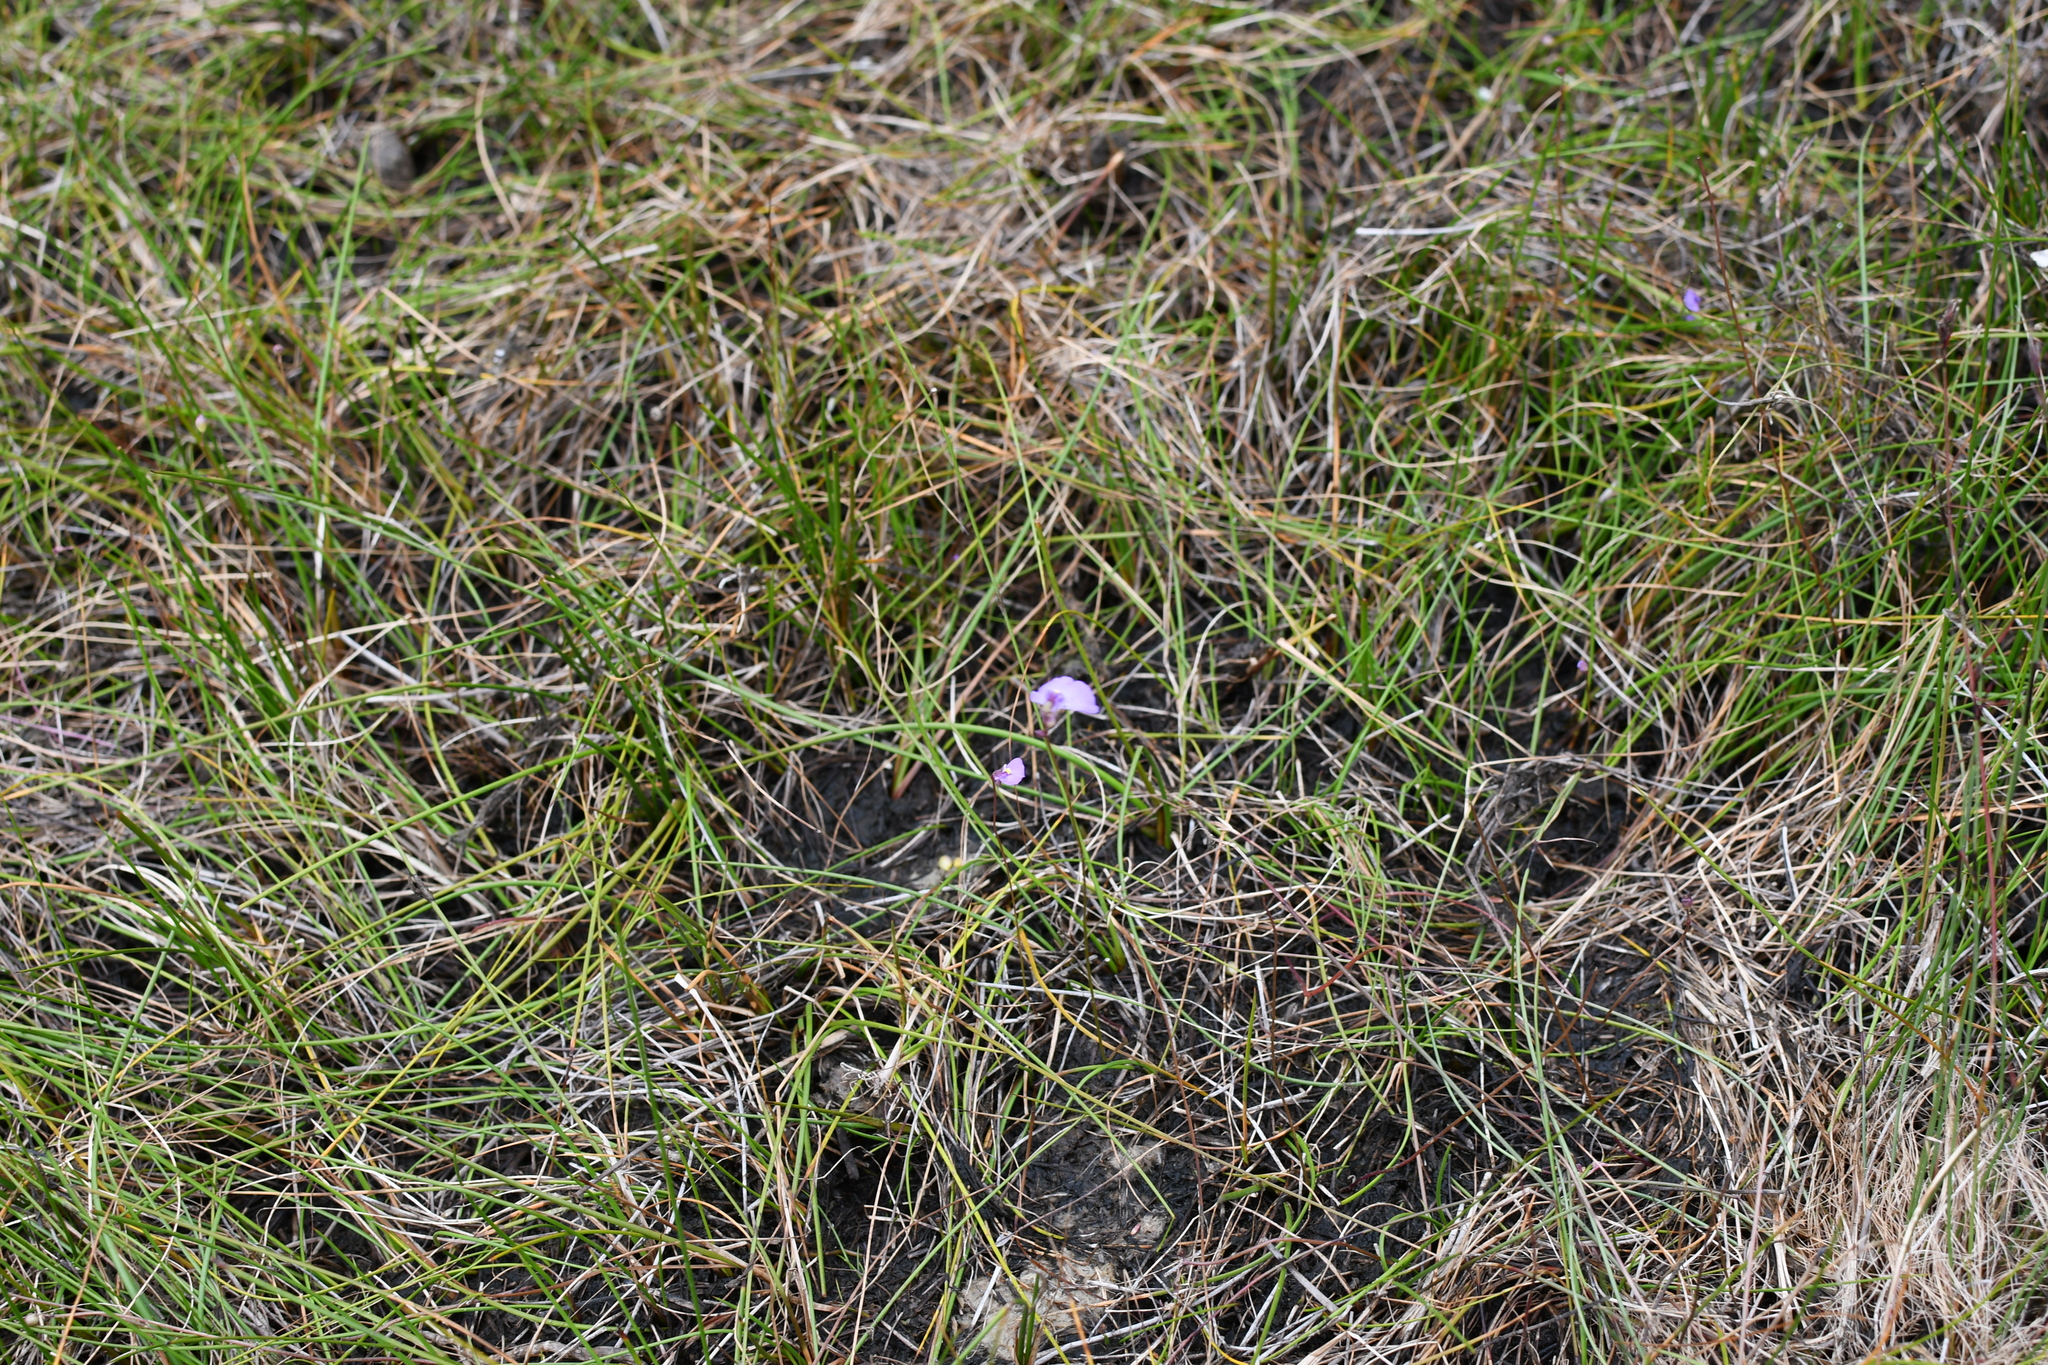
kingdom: Plantae
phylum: Tracheophyta
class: Magnoliopsida
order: Lamiales
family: Lentibulariaceae
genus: Utricularia
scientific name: Utricularia barkeri
